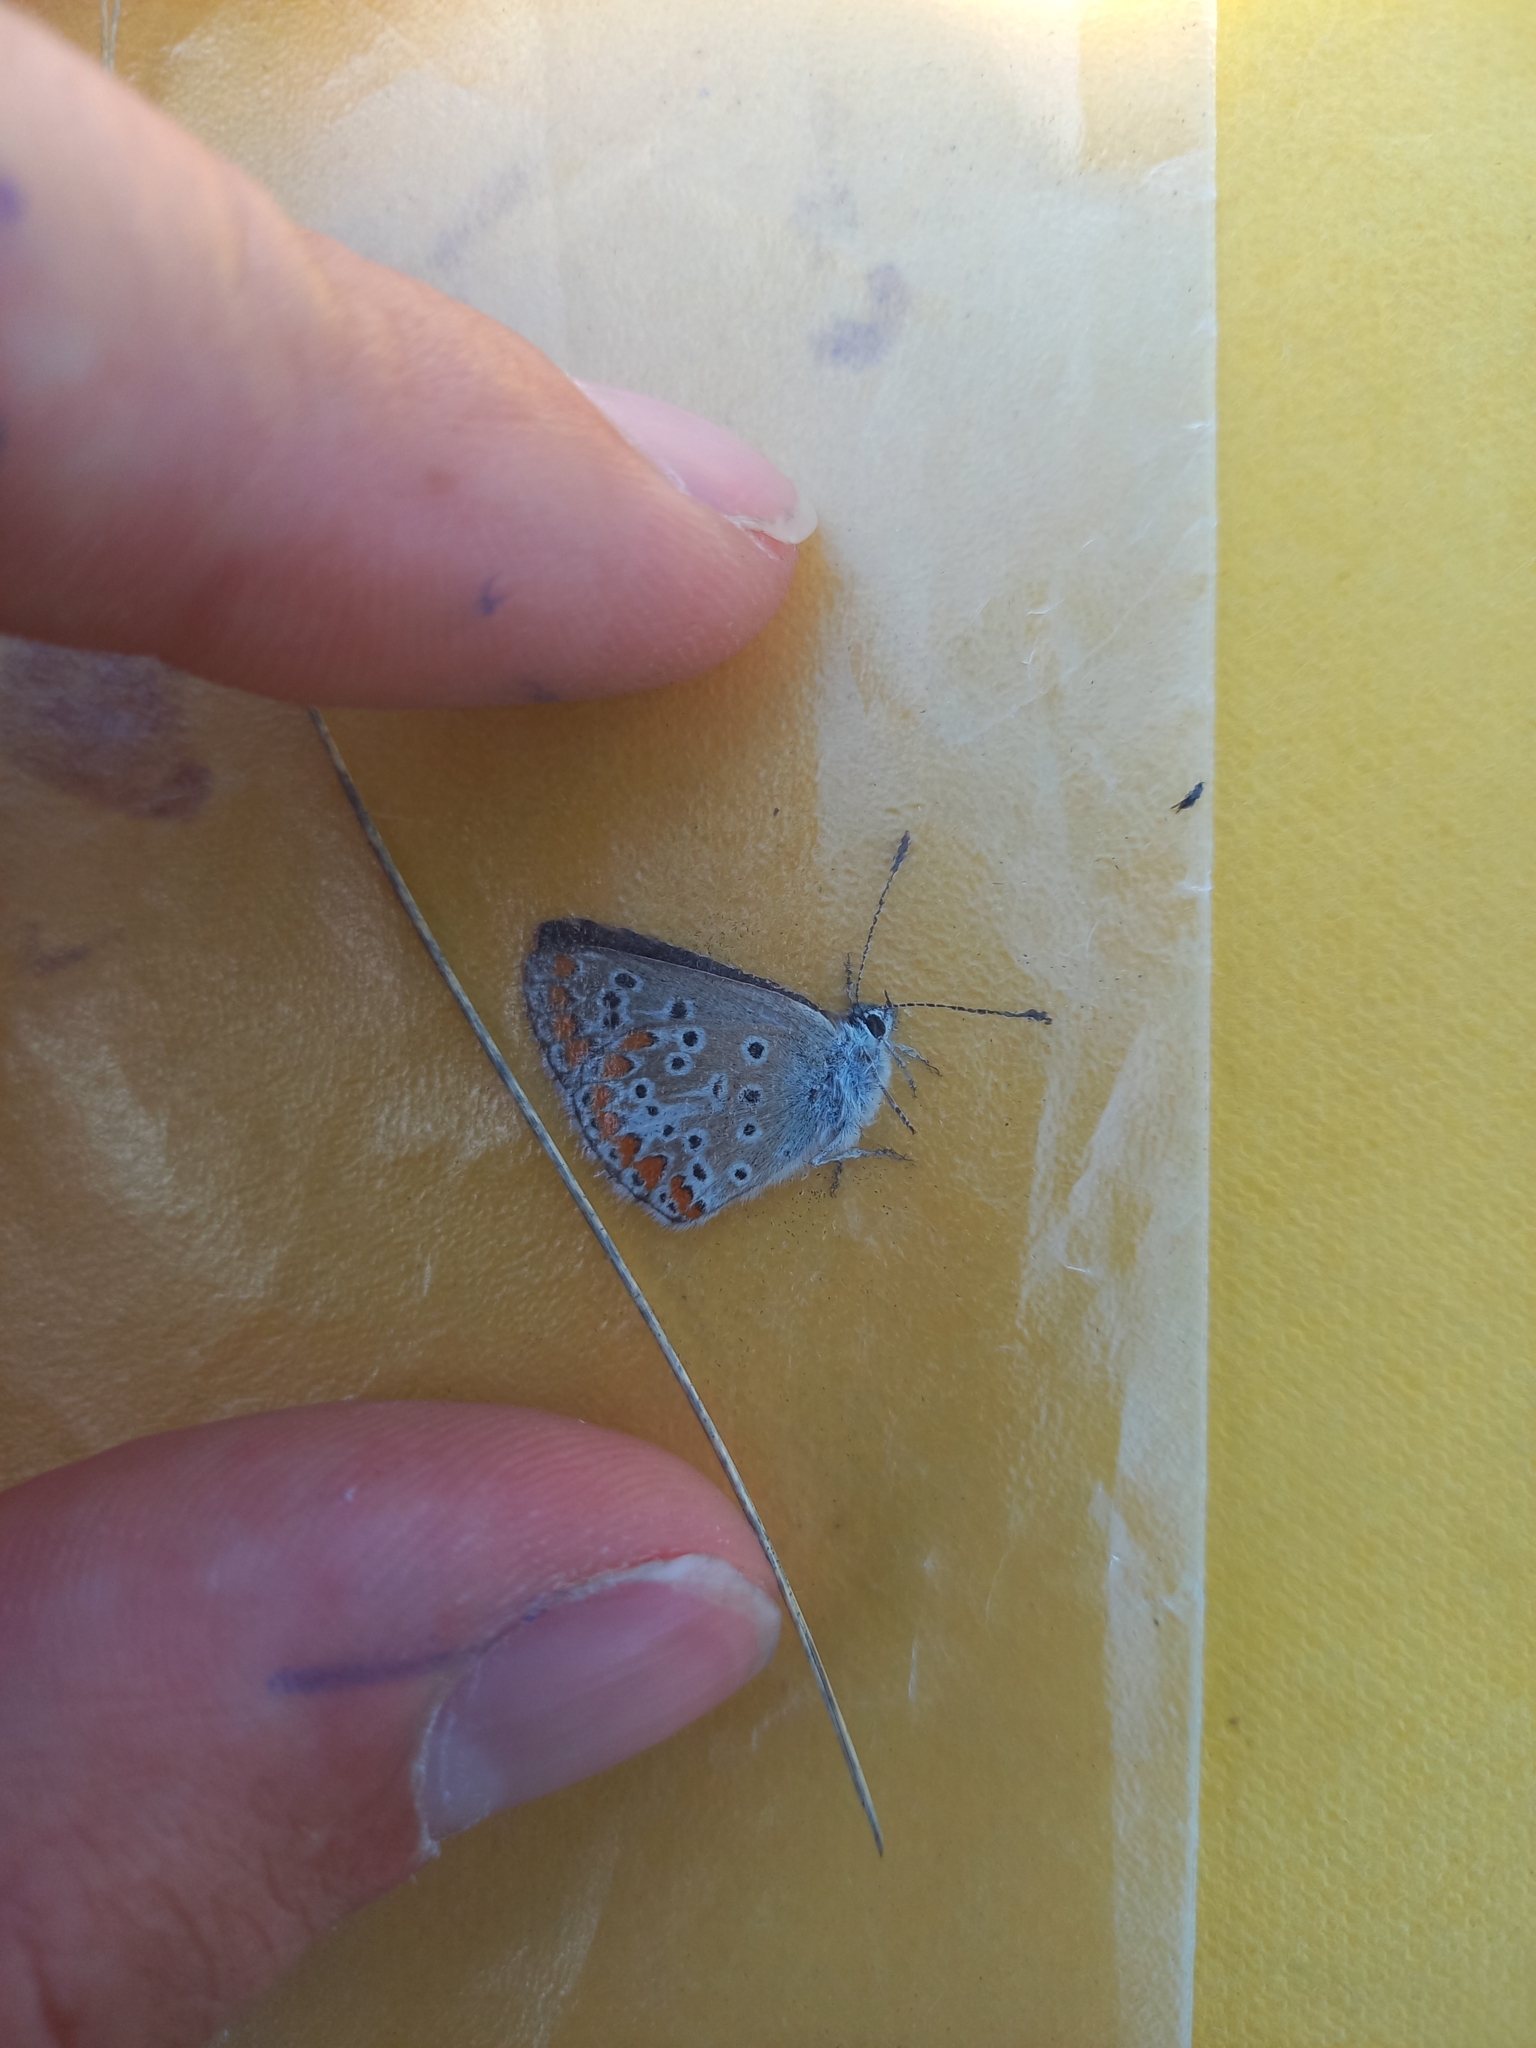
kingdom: Animalia
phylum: Arthropoda
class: Insecta
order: Lepidoptera
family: Lycaenidae
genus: Aricia
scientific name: Aricia agestis
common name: Brown argus
